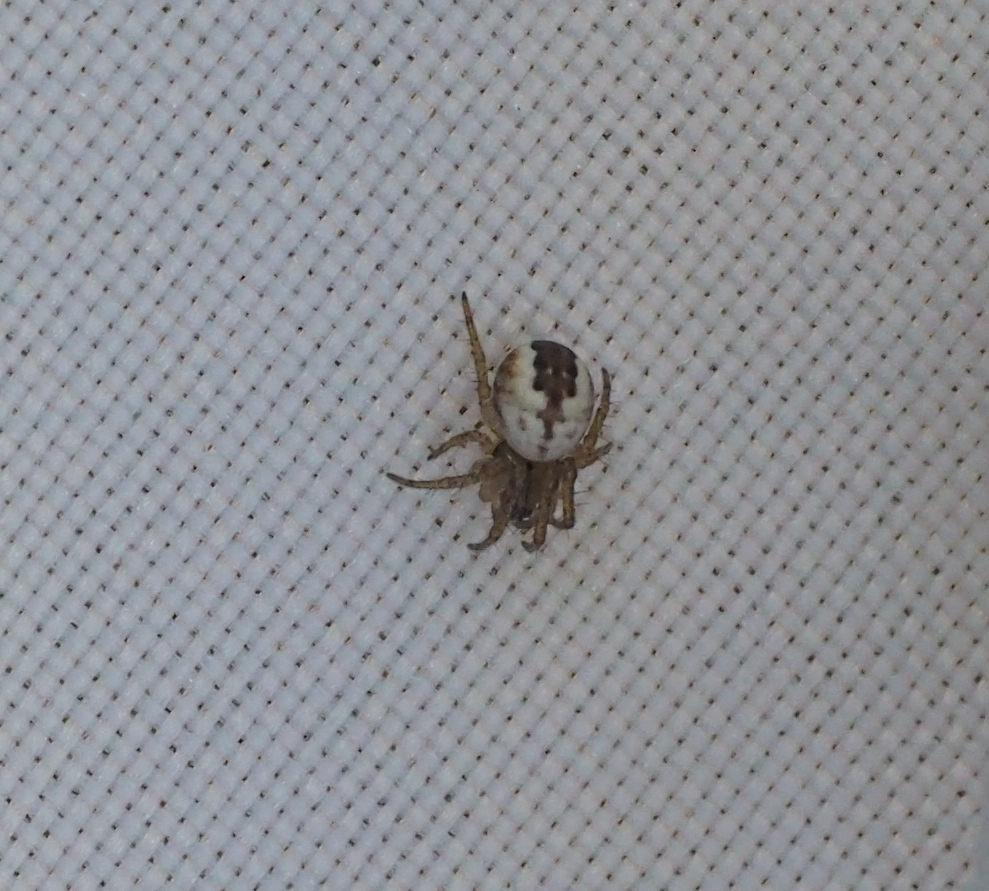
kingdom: Animalia
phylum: Arthropoda
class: Arachnida
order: Araneae
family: Araneidae
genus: Mangora
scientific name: Mangora acalypha
